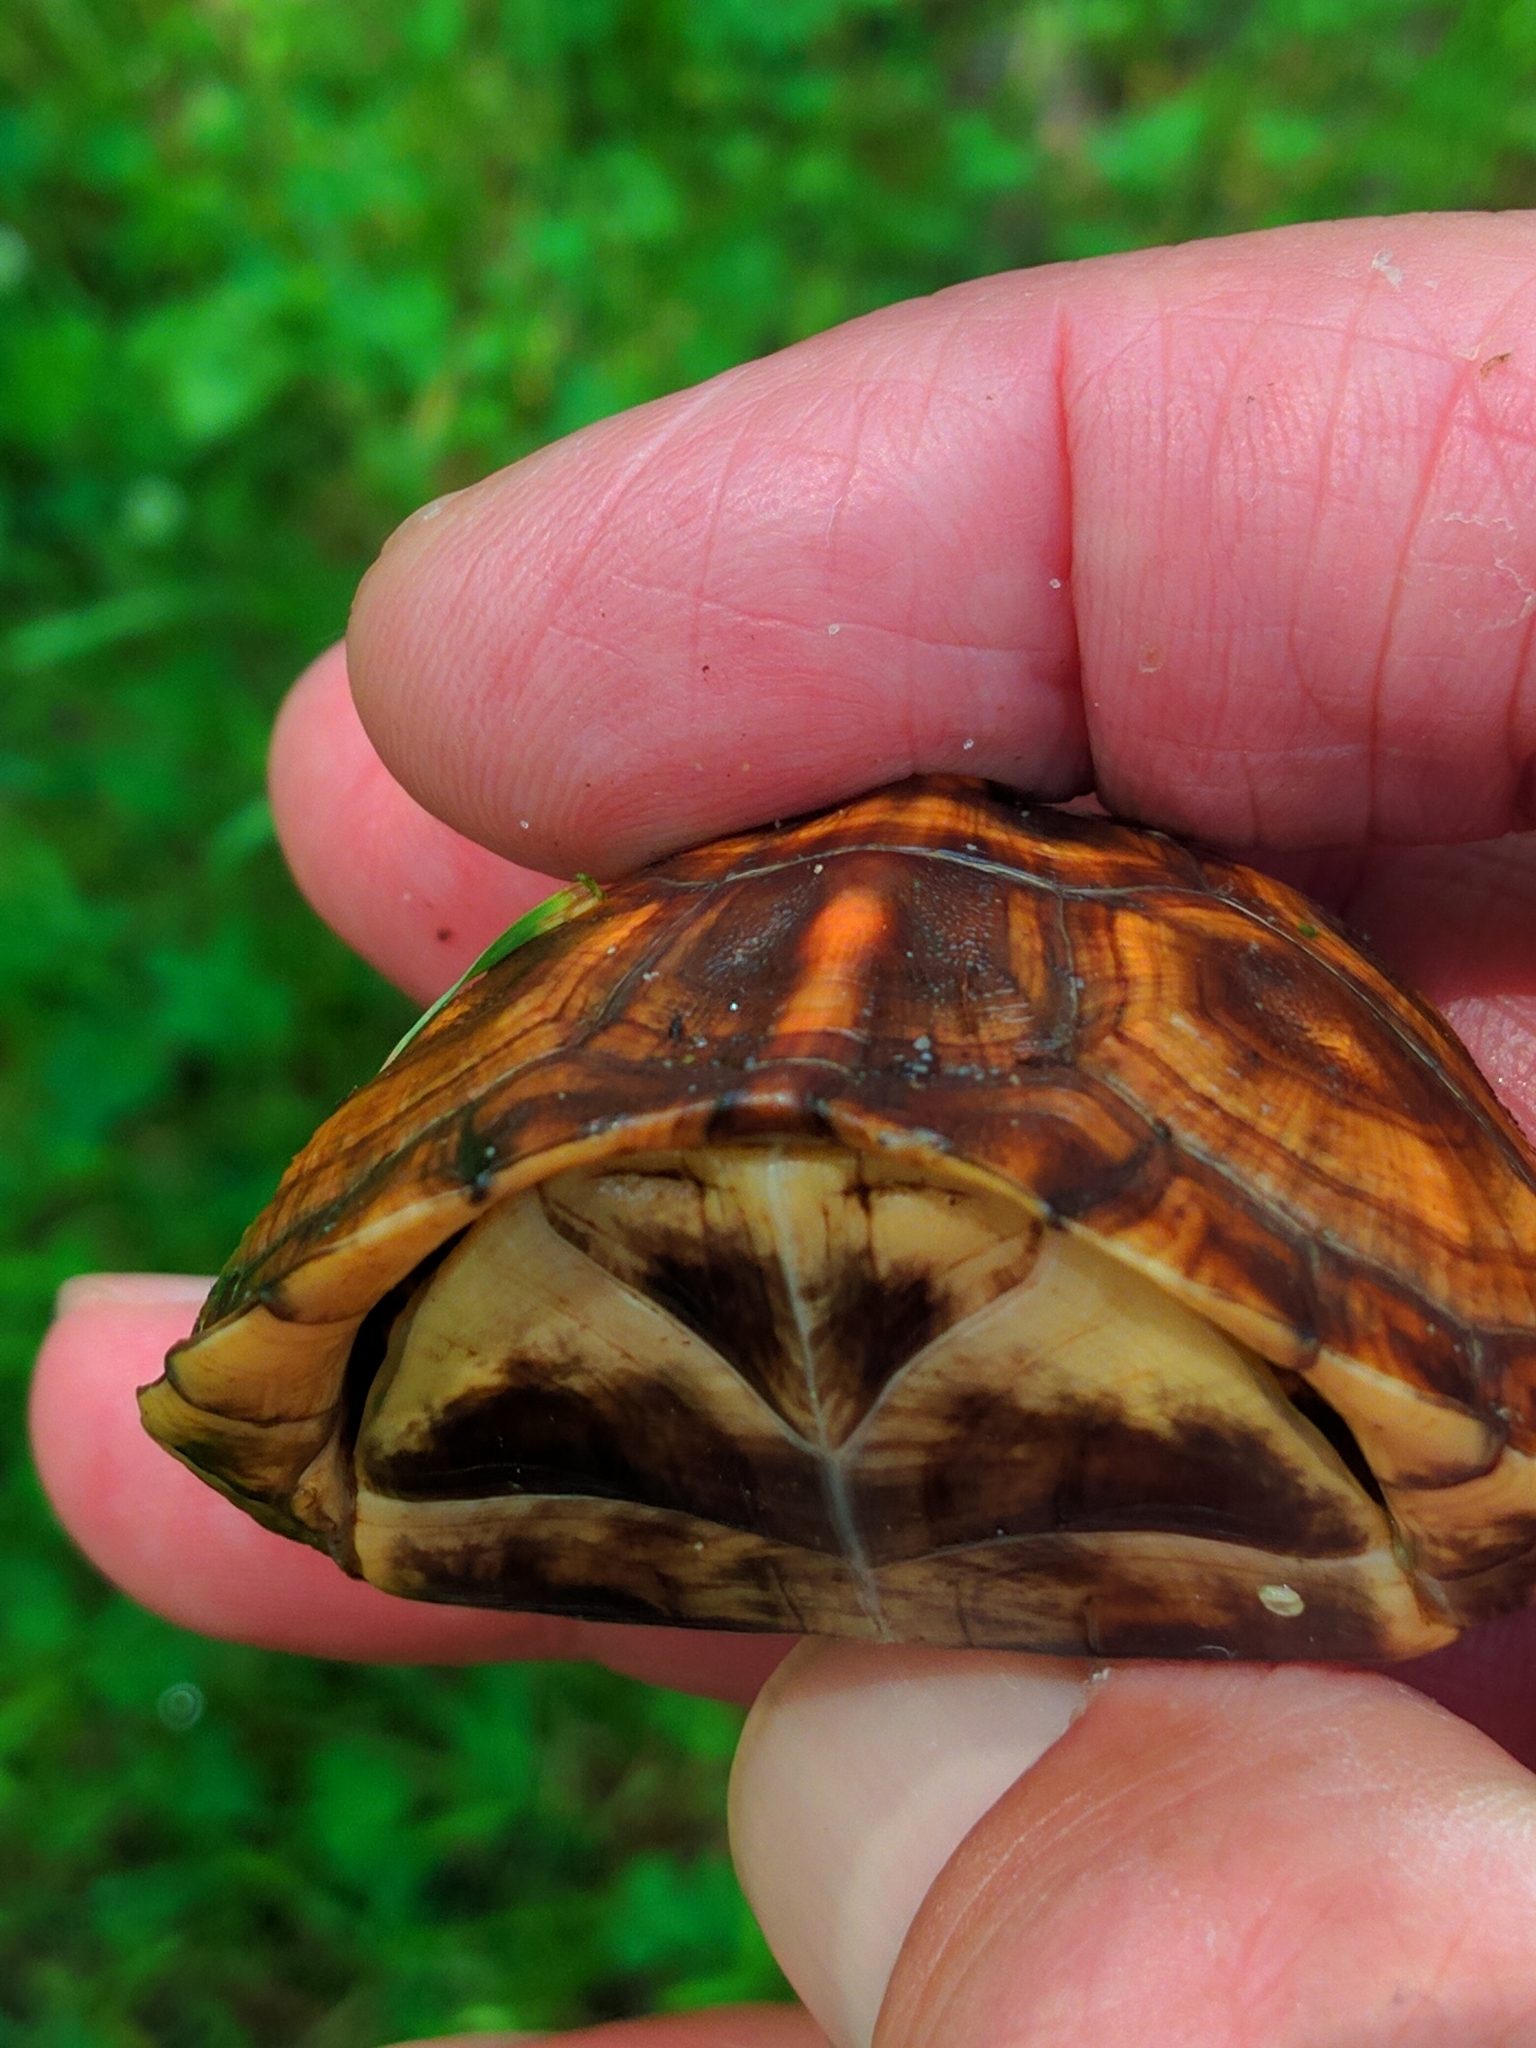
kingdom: Animalia
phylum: Chordata
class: Testudines
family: Emydidae
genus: Terrapene
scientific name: Terrapene carolina
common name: Common box turtle
